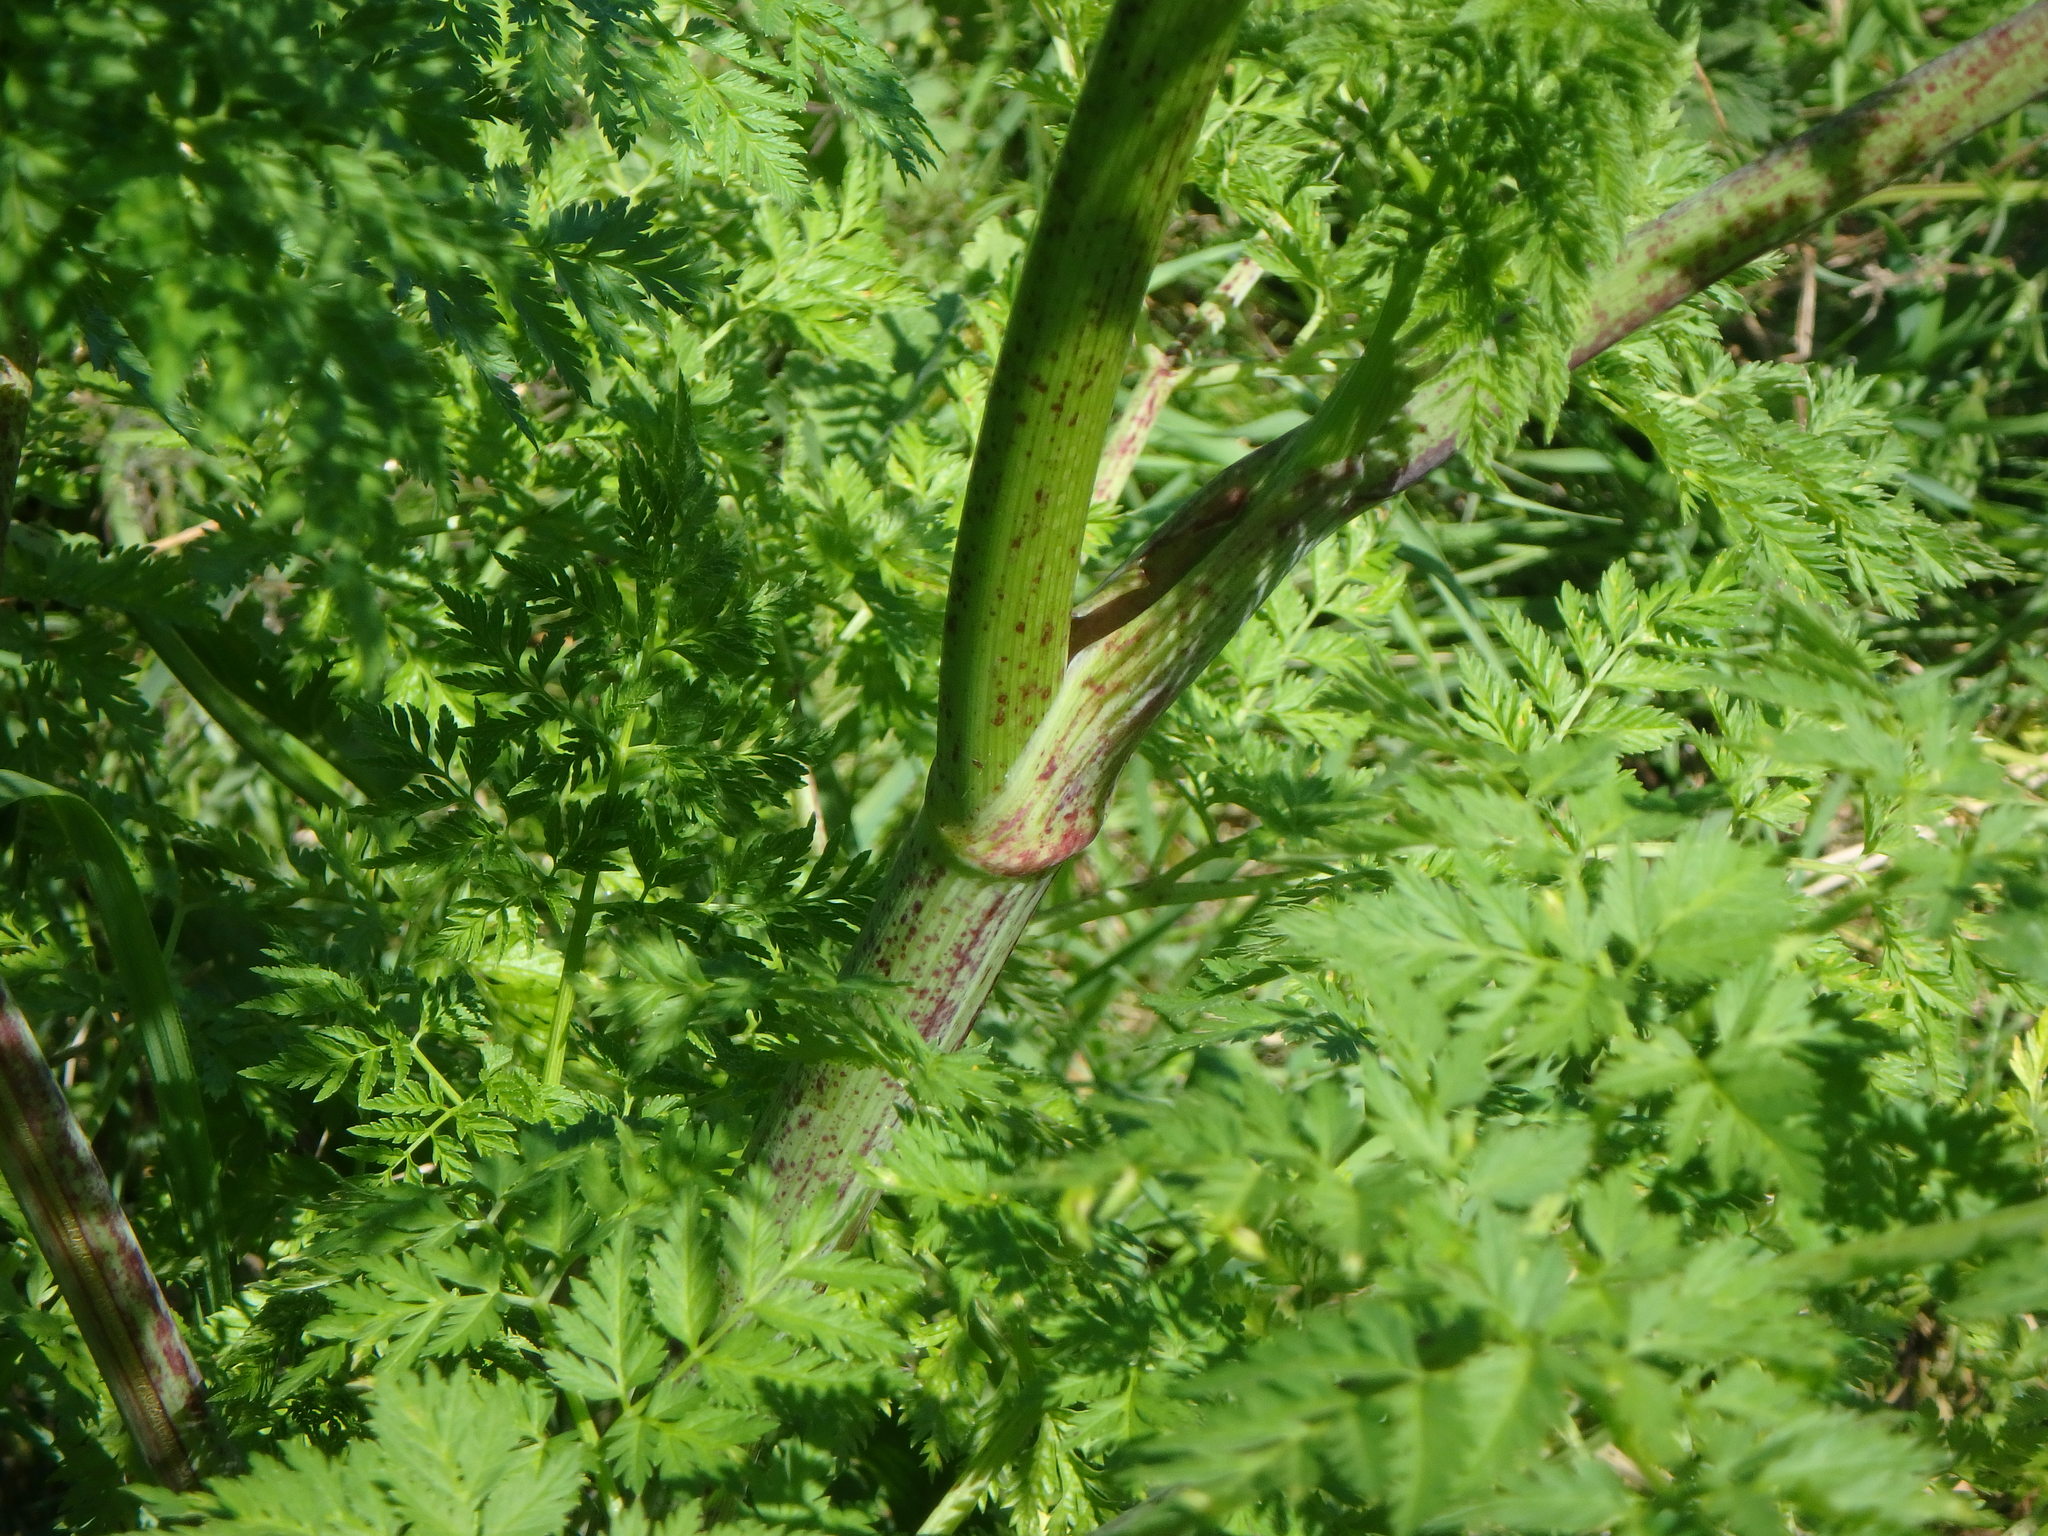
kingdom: Plantae
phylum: Tracheophyta
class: Magnoliopsida
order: Apiales
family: Apiaceae
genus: Conium
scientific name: Conium maculatum
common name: Hemlock
